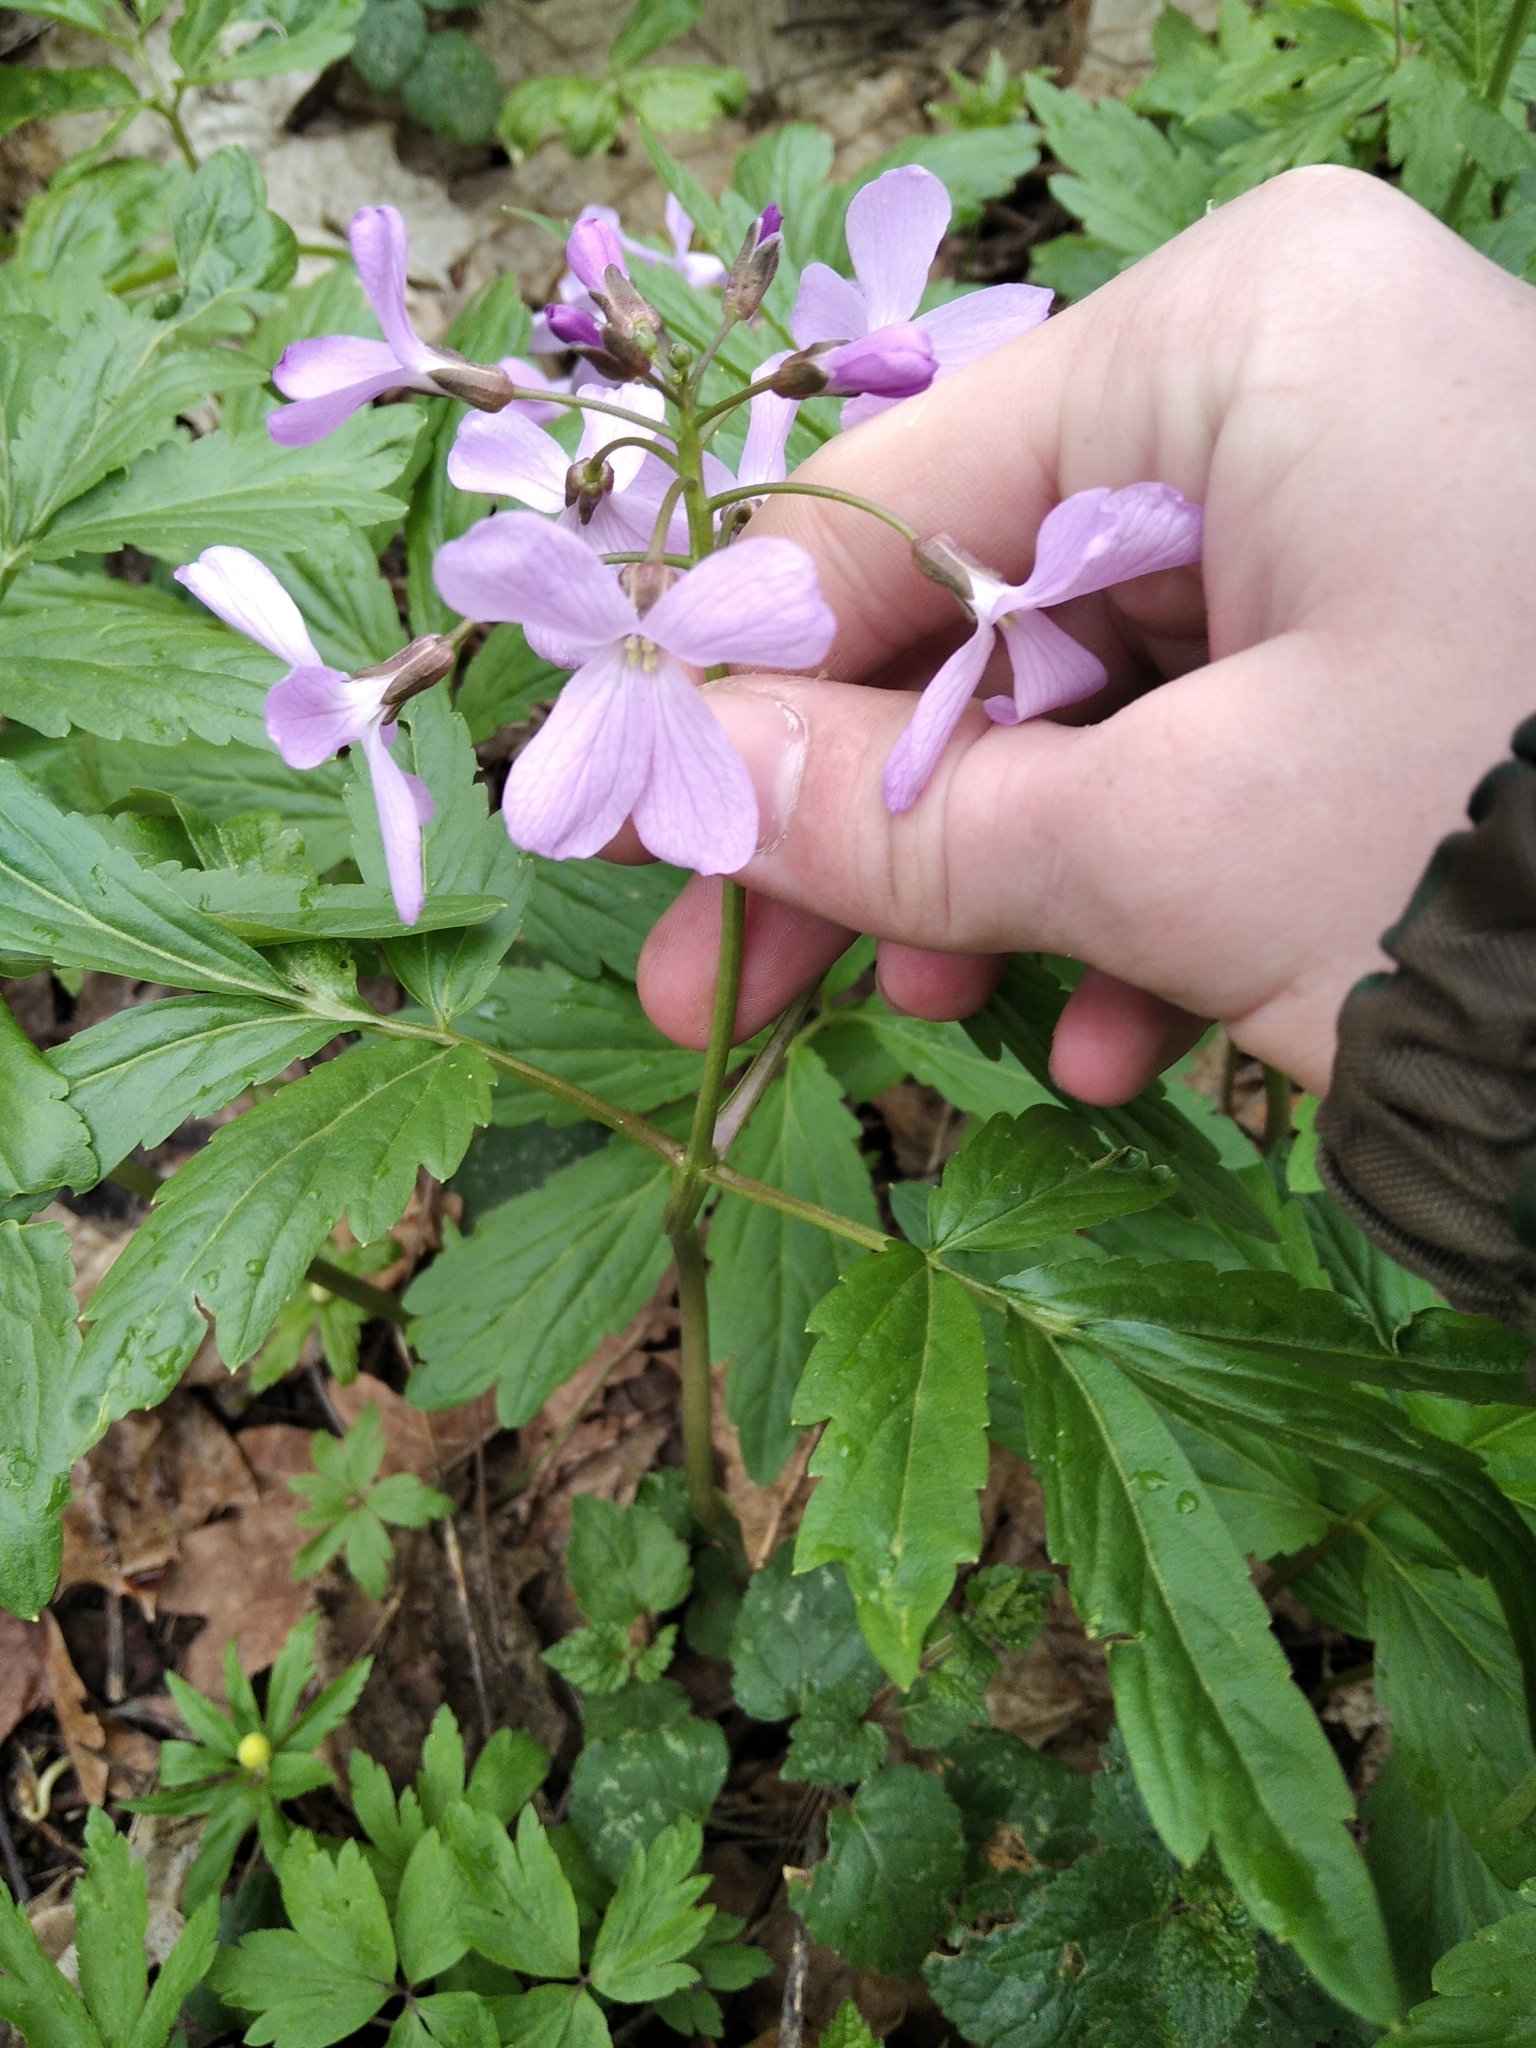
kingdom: Plantae
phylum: Tracheophyta
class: Magnoliopsida
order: Brassicales
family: Brassicaceae
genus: Cardamine
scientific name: Cardamine quinquefolia
